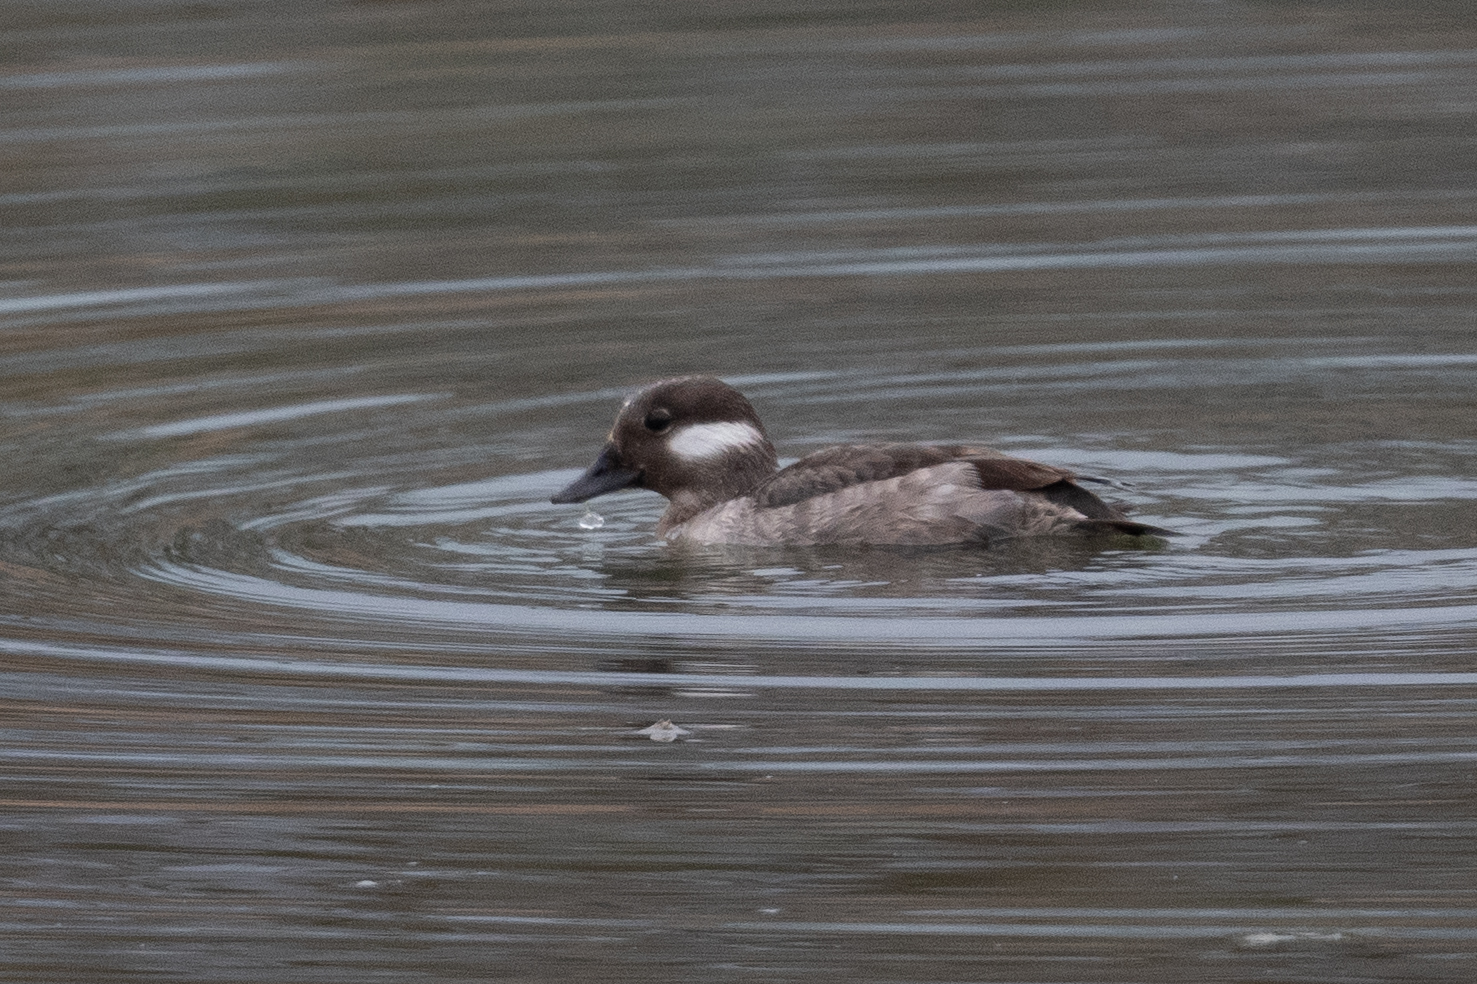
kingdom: Animalia
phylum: Chordata
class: Aves
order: Anseriformes
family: Anatidae
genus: Bucephala
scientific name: Bucephala albeola
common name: Bufflehead
